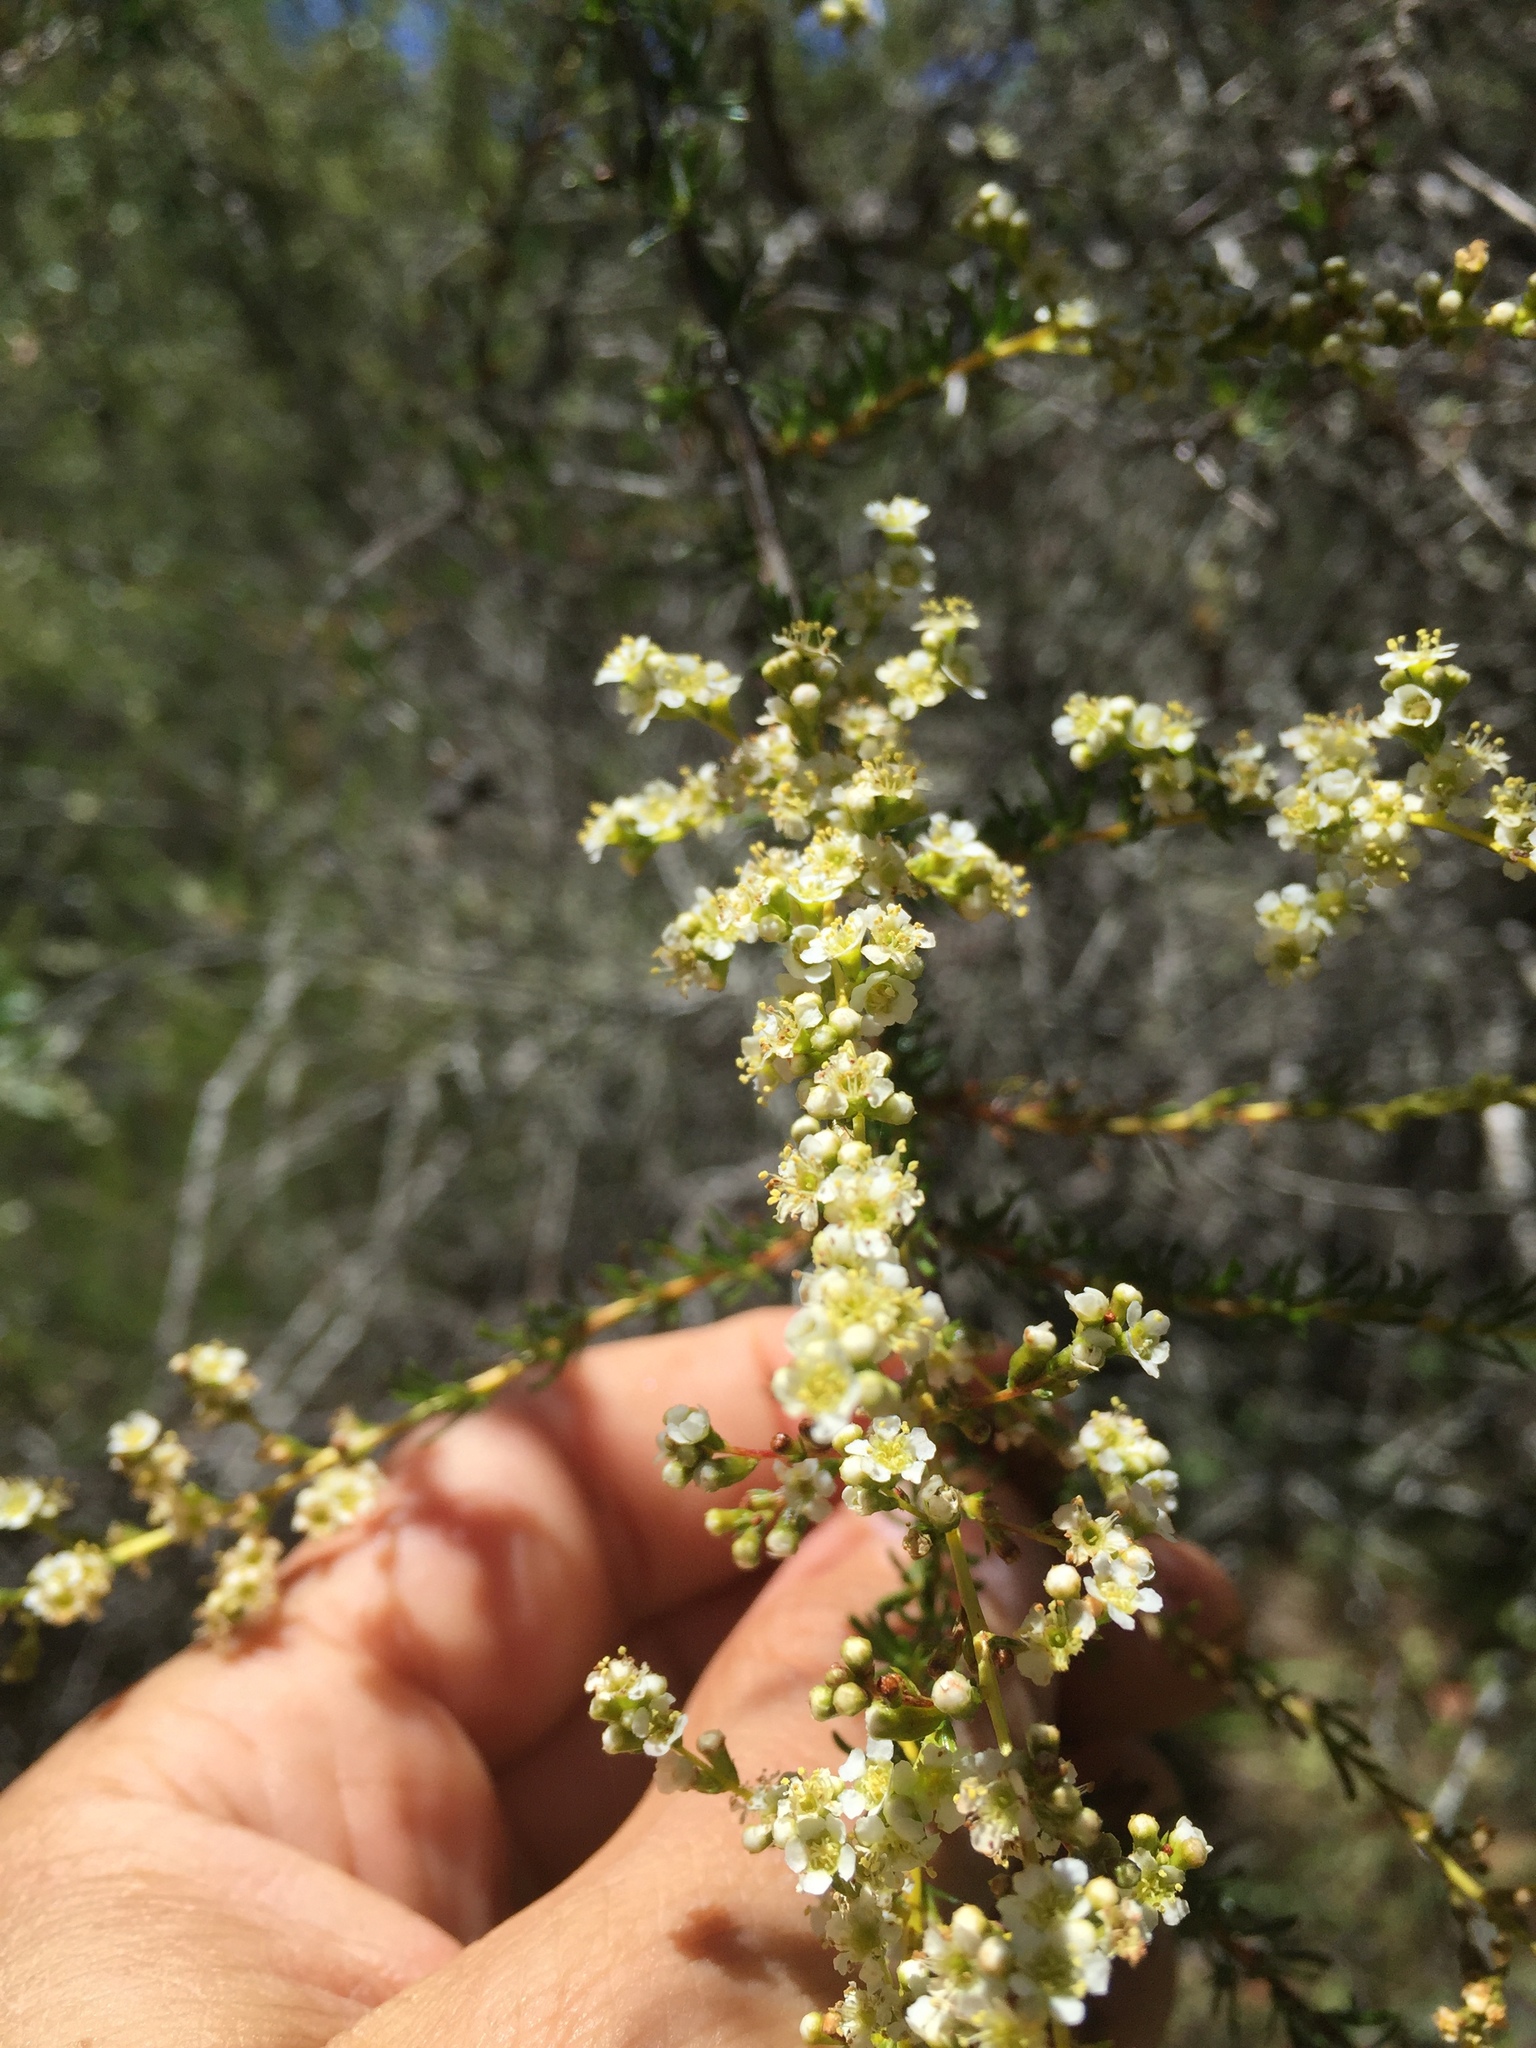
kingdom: Plantae
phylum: Tracheophyta
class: Magnoliopsida
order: Rosales
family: Rosaceae
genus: Adenostoma
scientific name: Adenostoma fasciculatum
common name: Chamise
